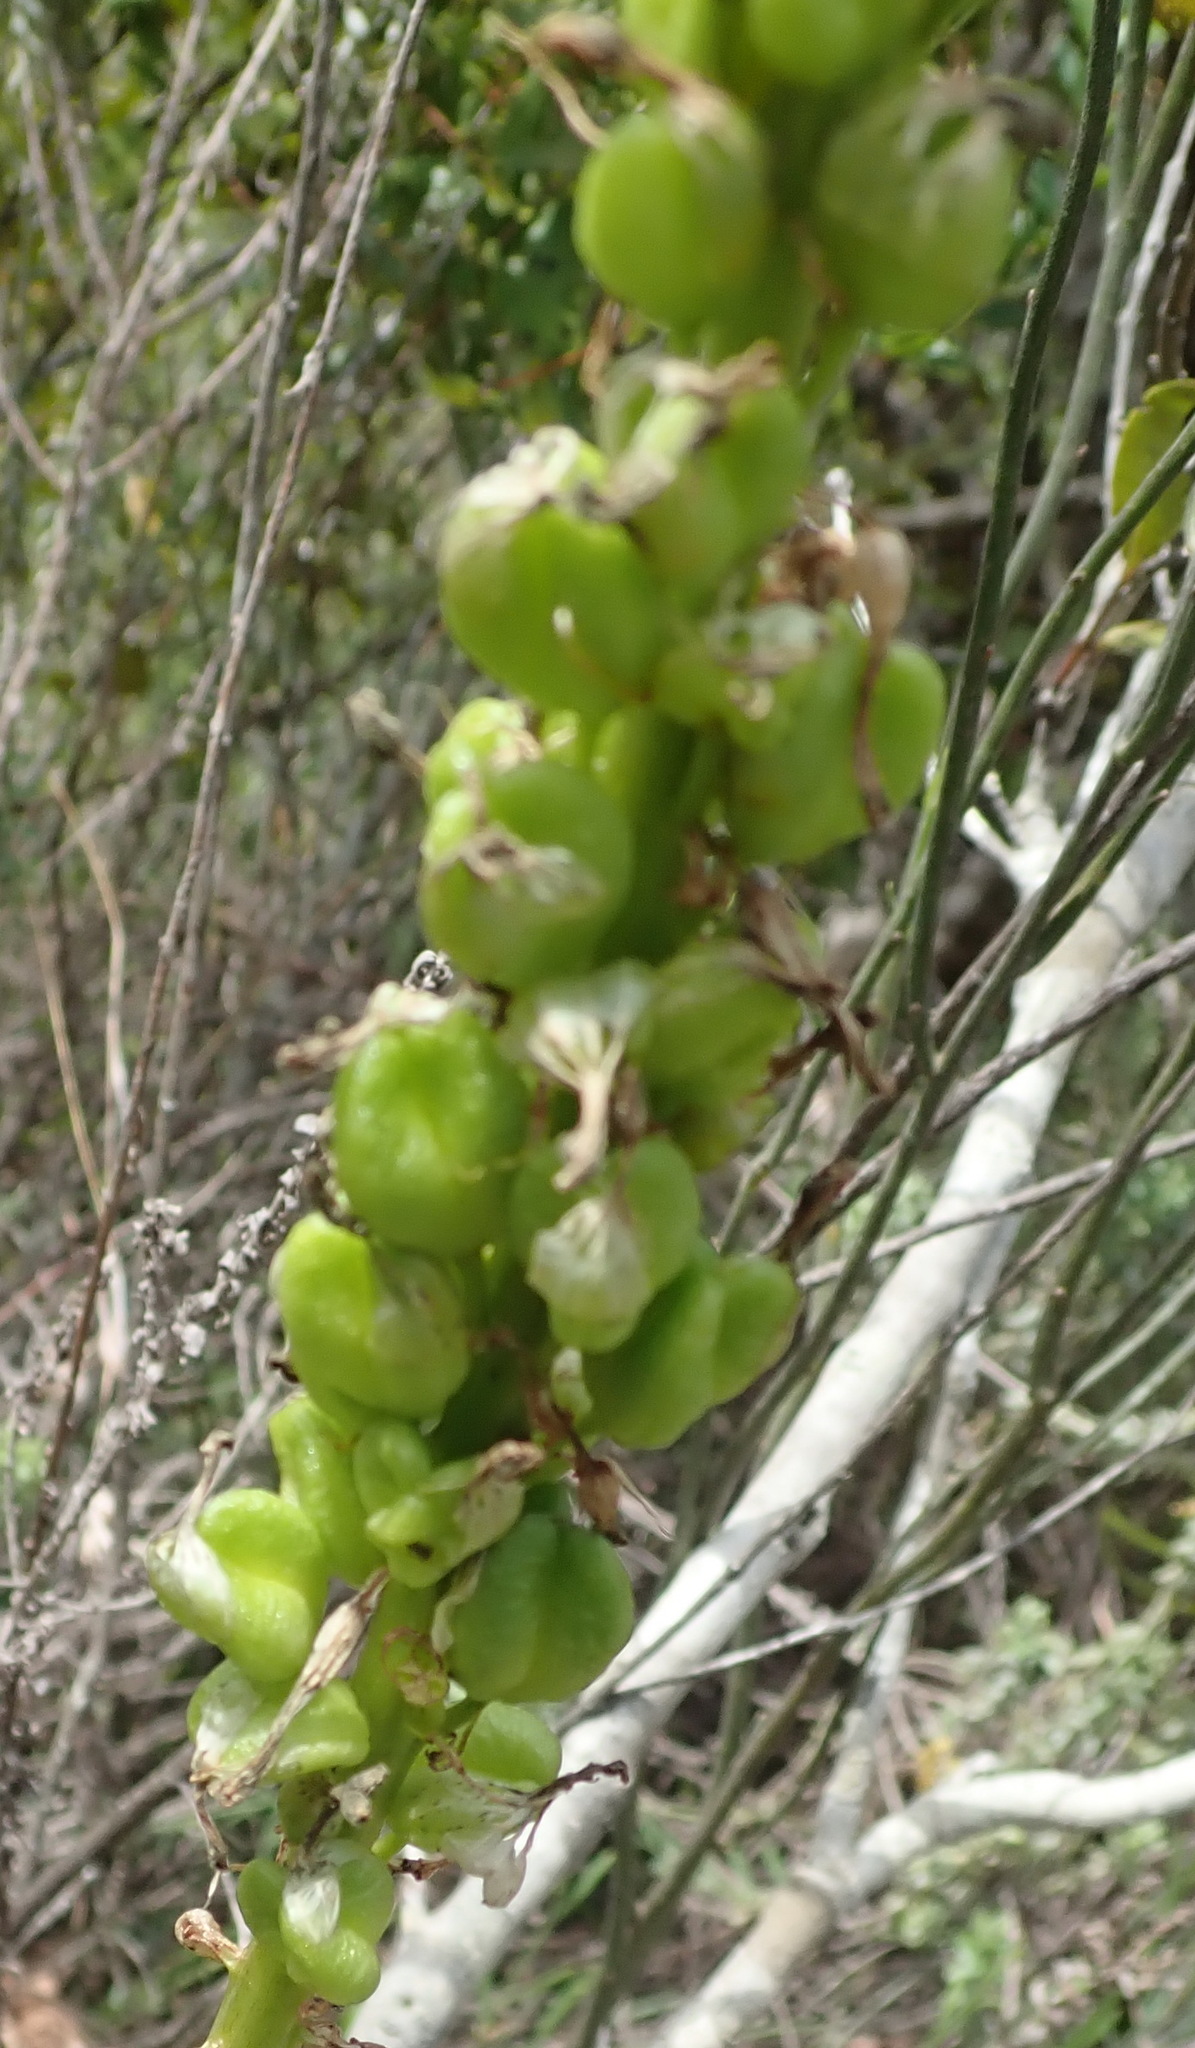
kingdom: Plantae
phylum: Tracheophyta
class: Liliopsida
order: Asparagales
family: Asparagaceae
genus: Drimia
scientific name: Drimia elata
